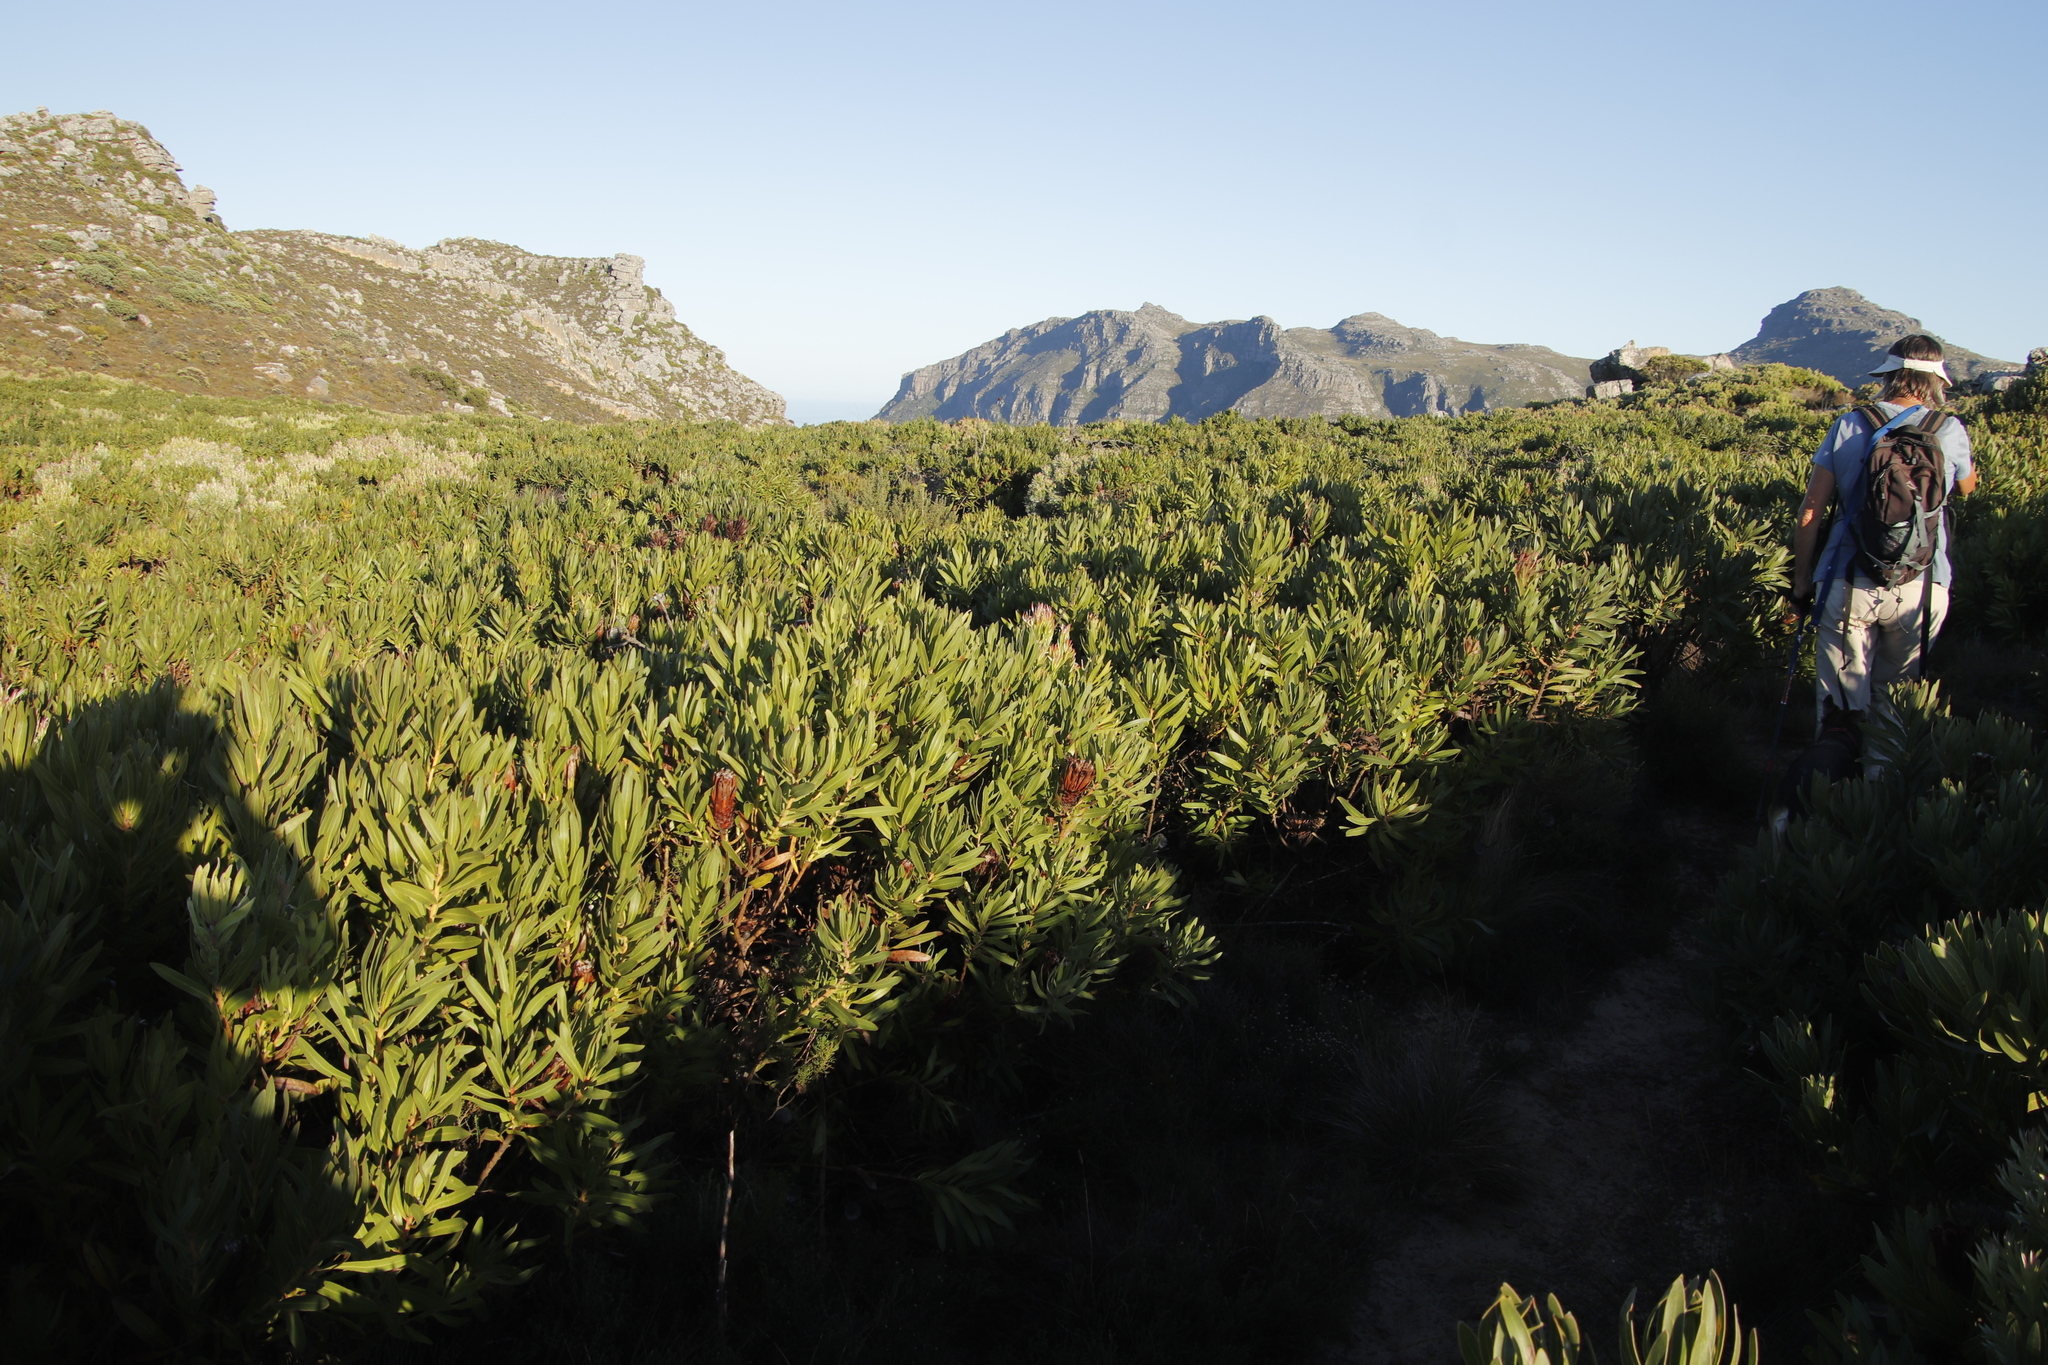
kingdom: Plantae
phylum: Tracheophyta
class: Magnoliopsida
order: Proteales
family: Proteaceae
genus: Protea
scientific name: Protea lepidocarpodendron
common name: Black-bearded protea
